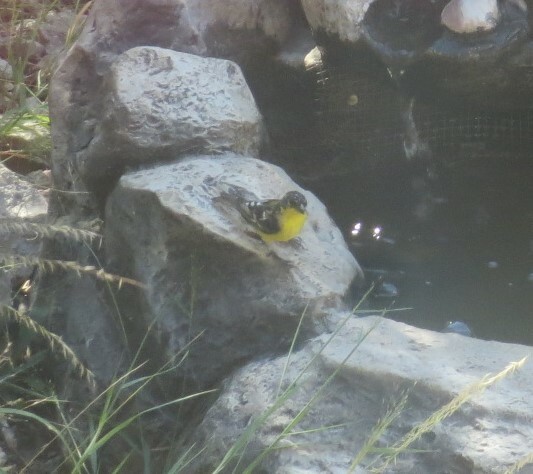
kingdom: Animalia
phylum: Chordata
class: Aves
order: Passeriformes
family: Fringillidae
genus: Spinus
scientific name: Spinus psaltria
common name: Lesser goldfinch
